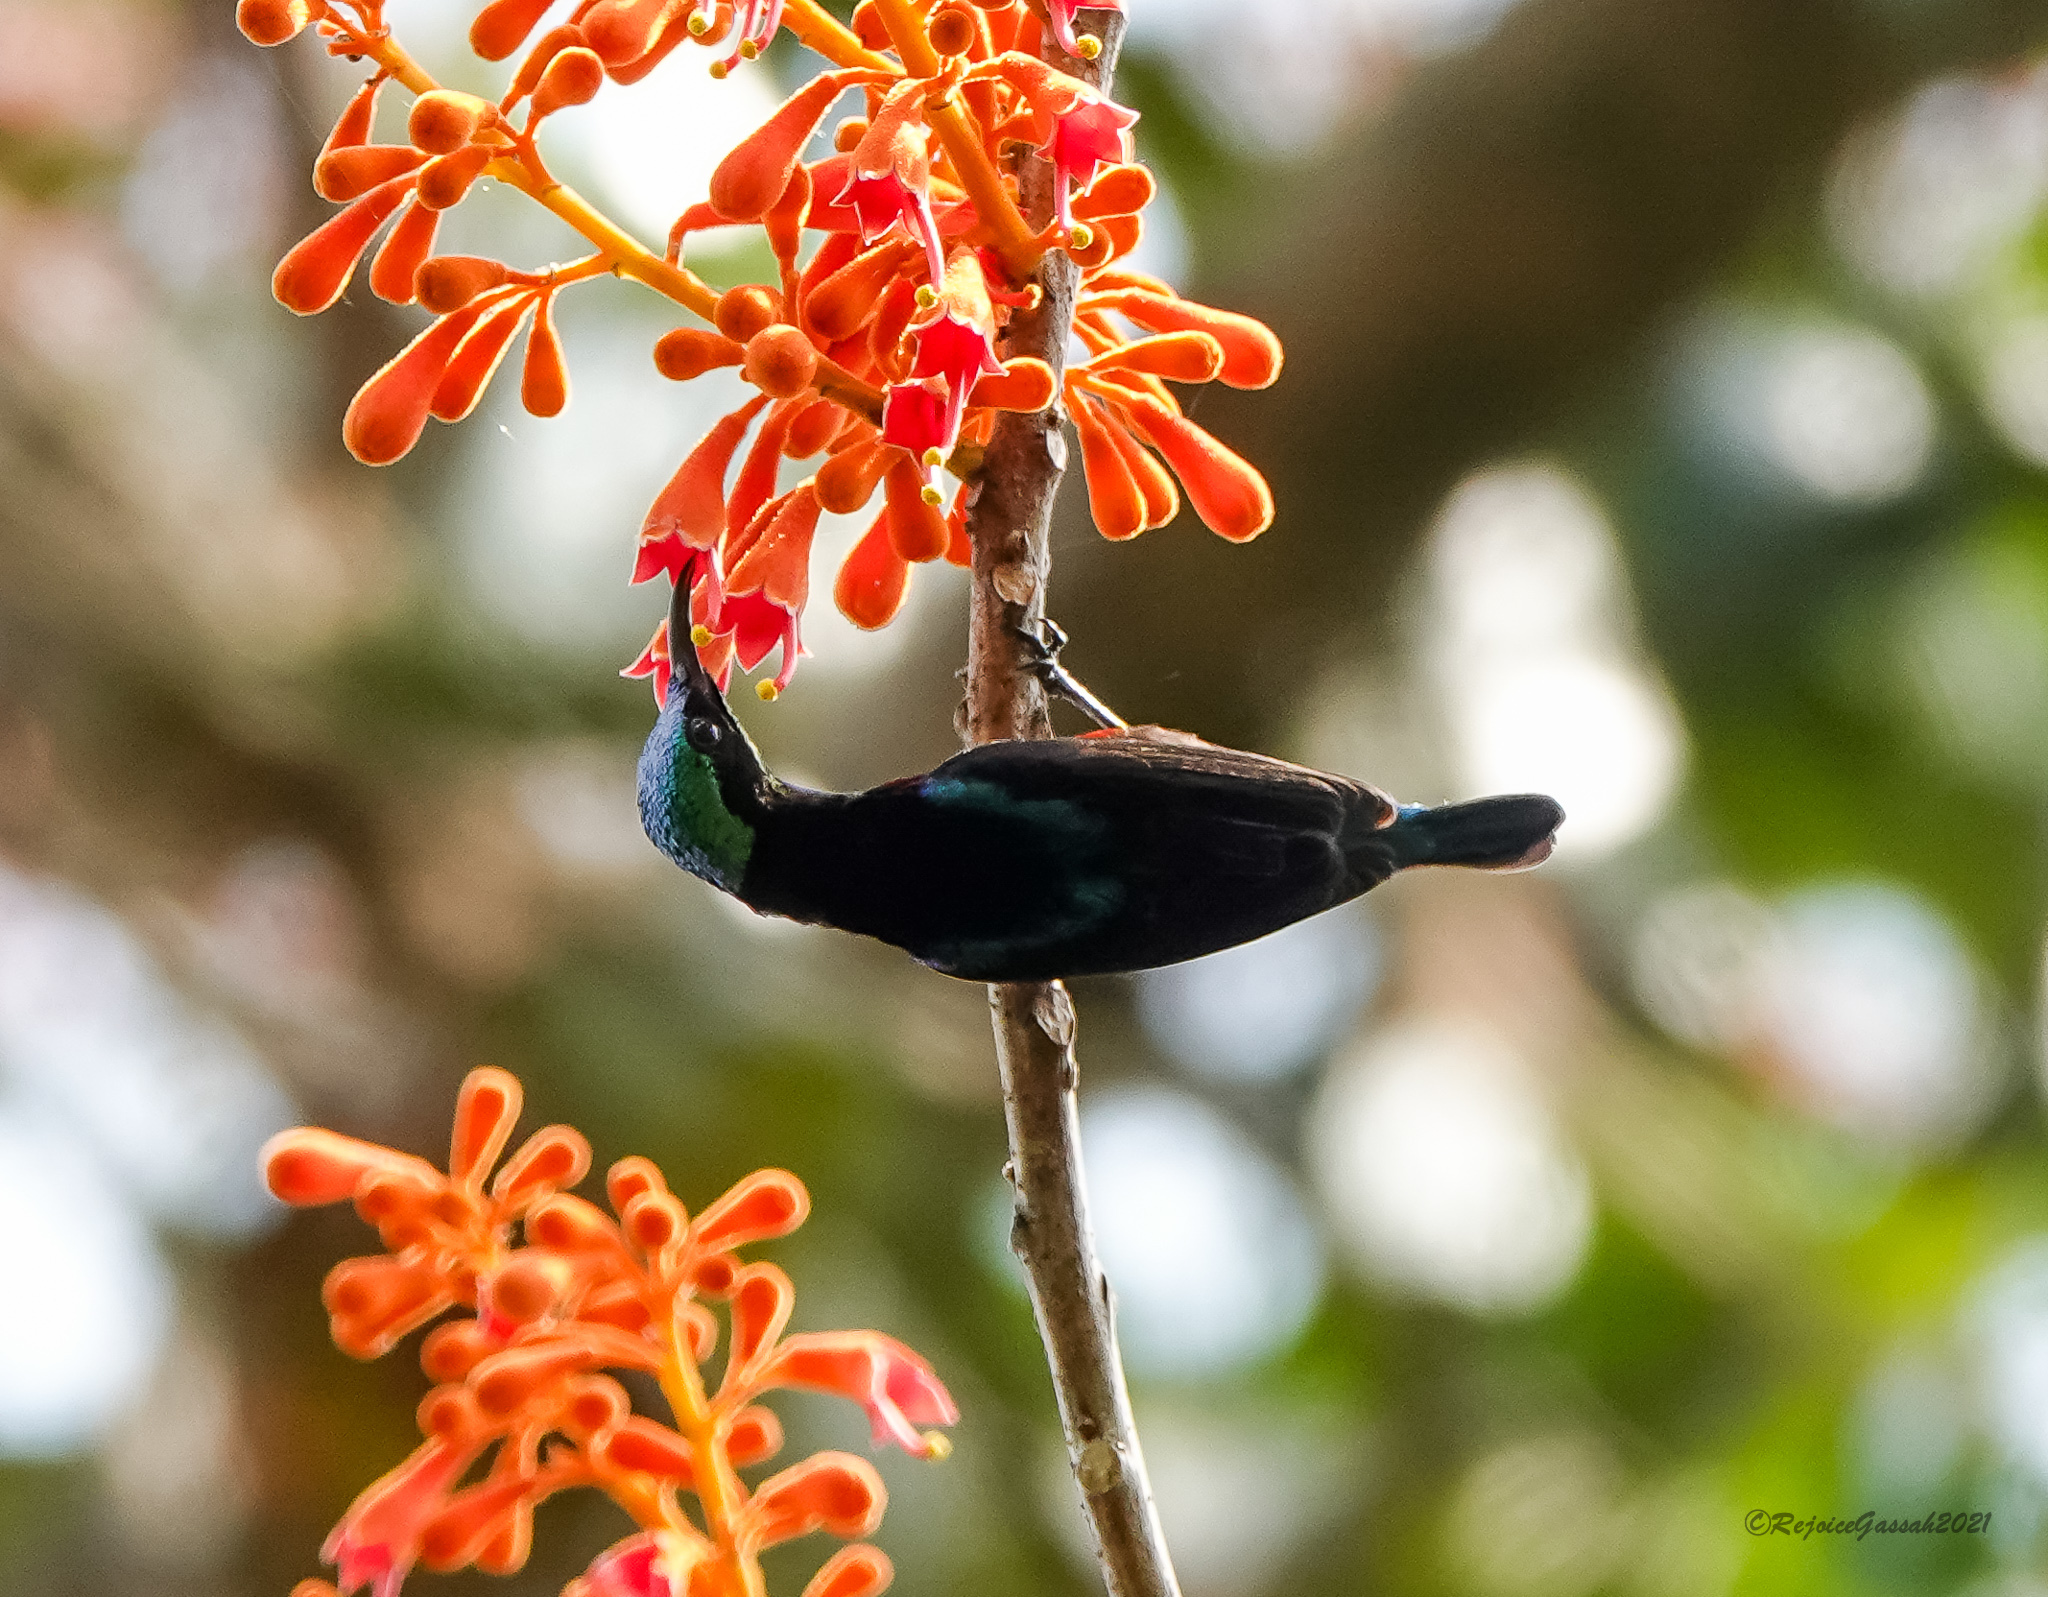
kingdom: Animalia
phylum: Chordata
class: Aves
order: Passeriformes
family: Nectariniidae
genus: Leptocoma
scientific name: Leptocoma brasiliana
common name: Van hasselt's sunbird
